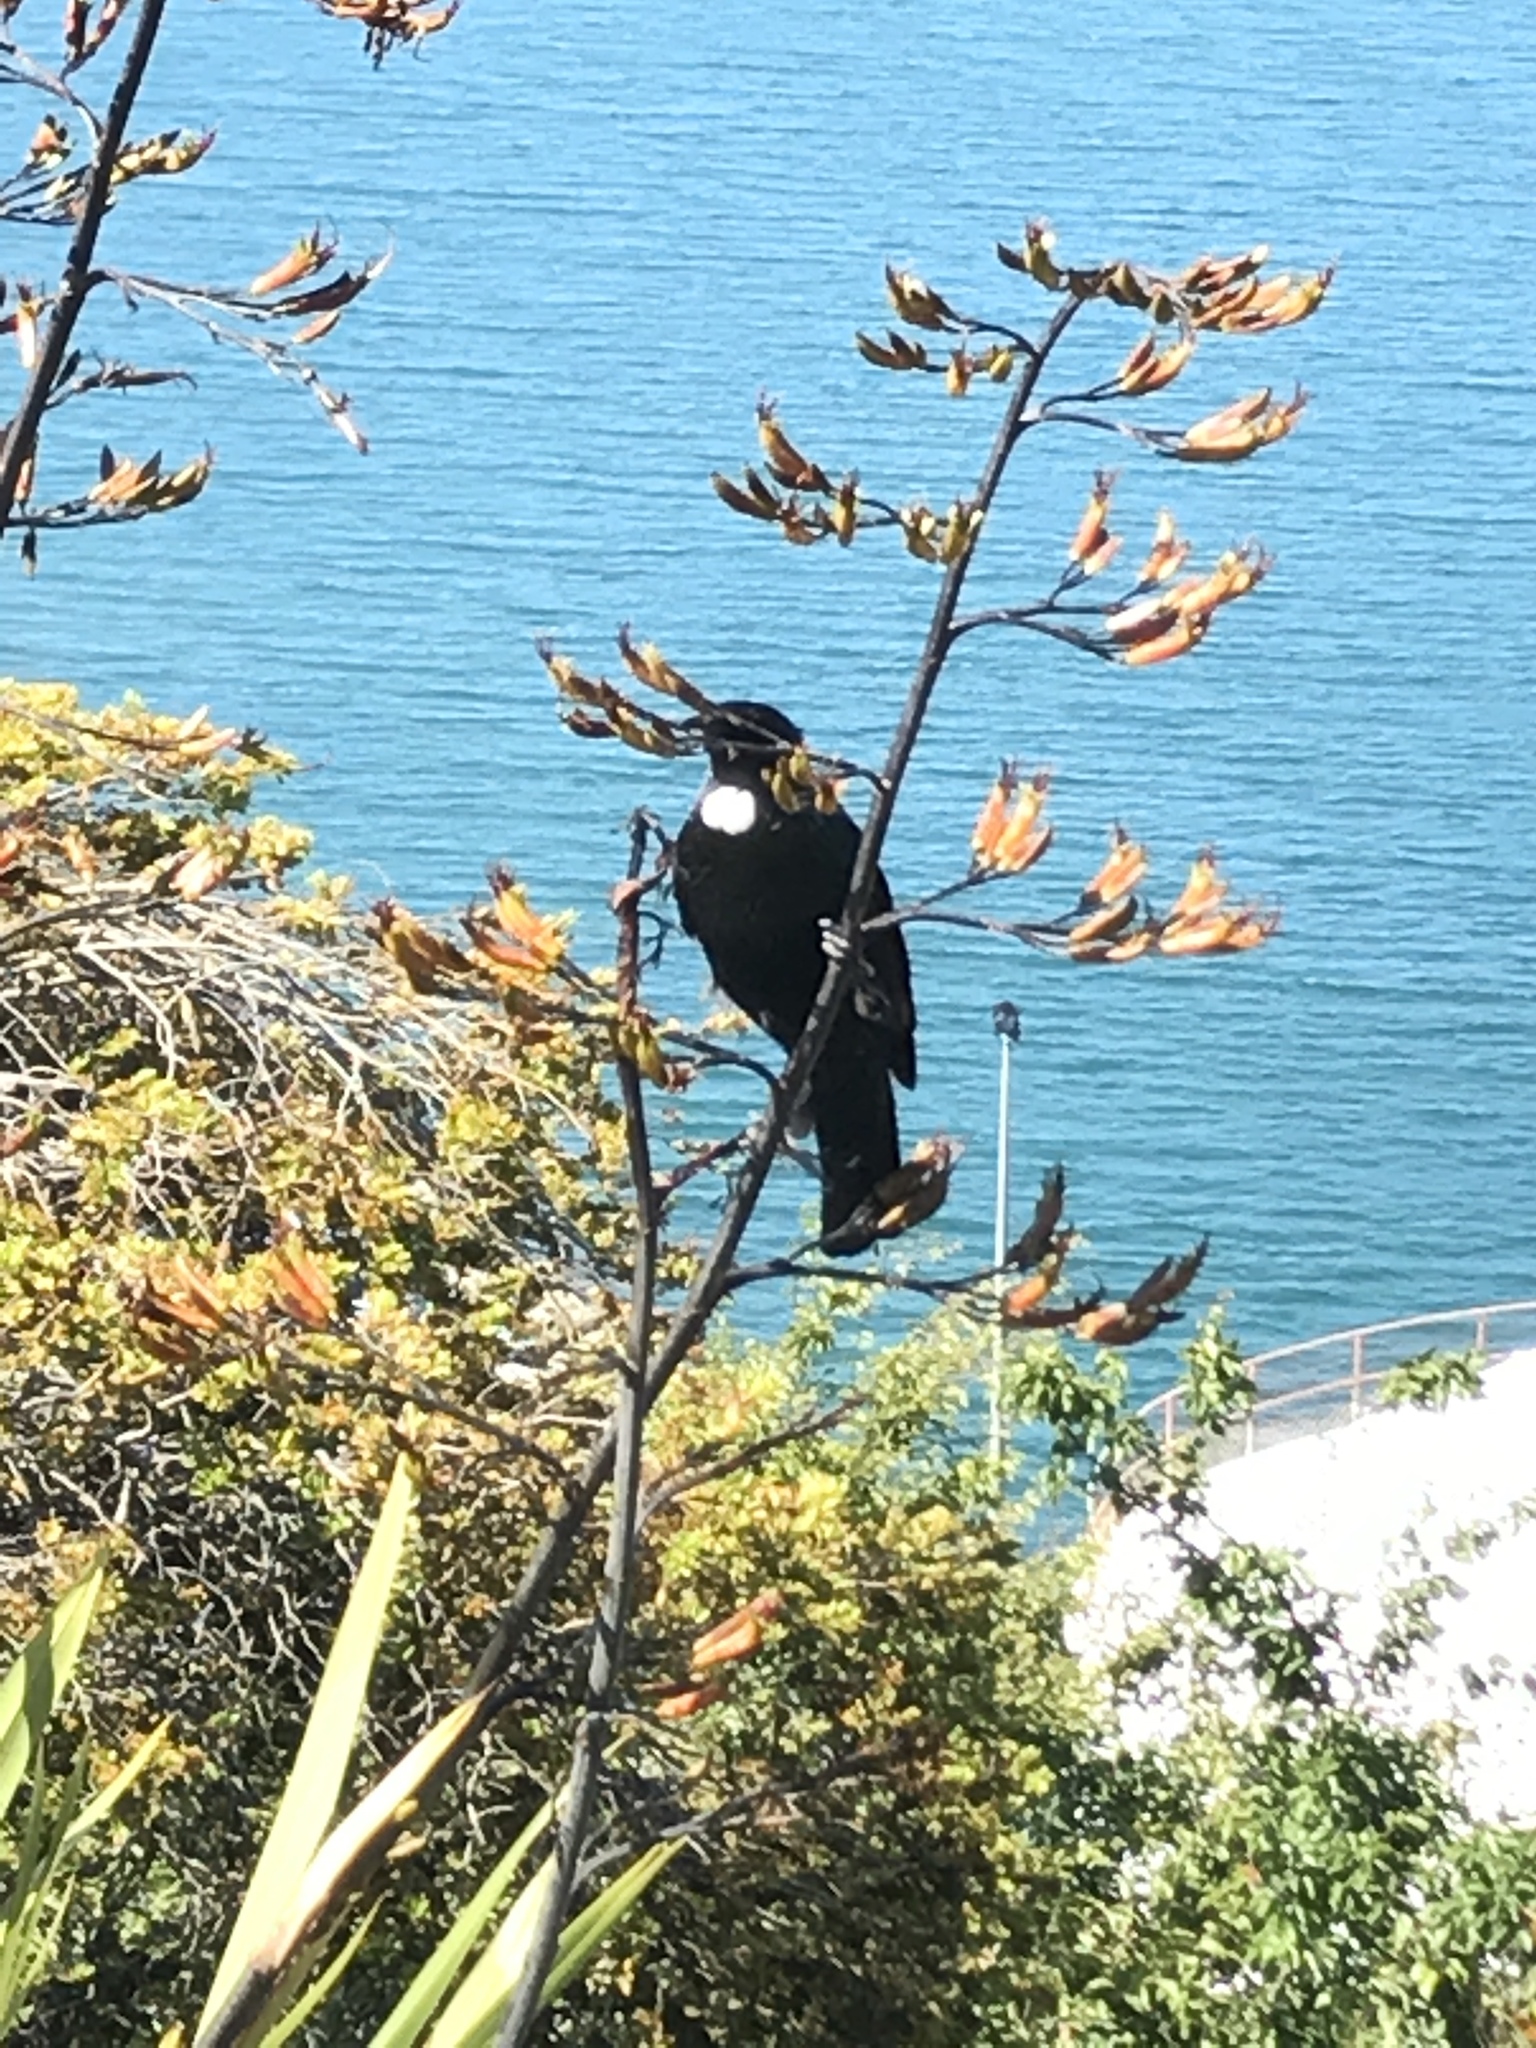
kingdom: Animalia
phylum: Chordata
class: Aves
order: Passeriformes
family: Meliphagidae
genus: Prosthemadera
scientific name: Prosthemadera novaeseelandiae
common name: Tui
